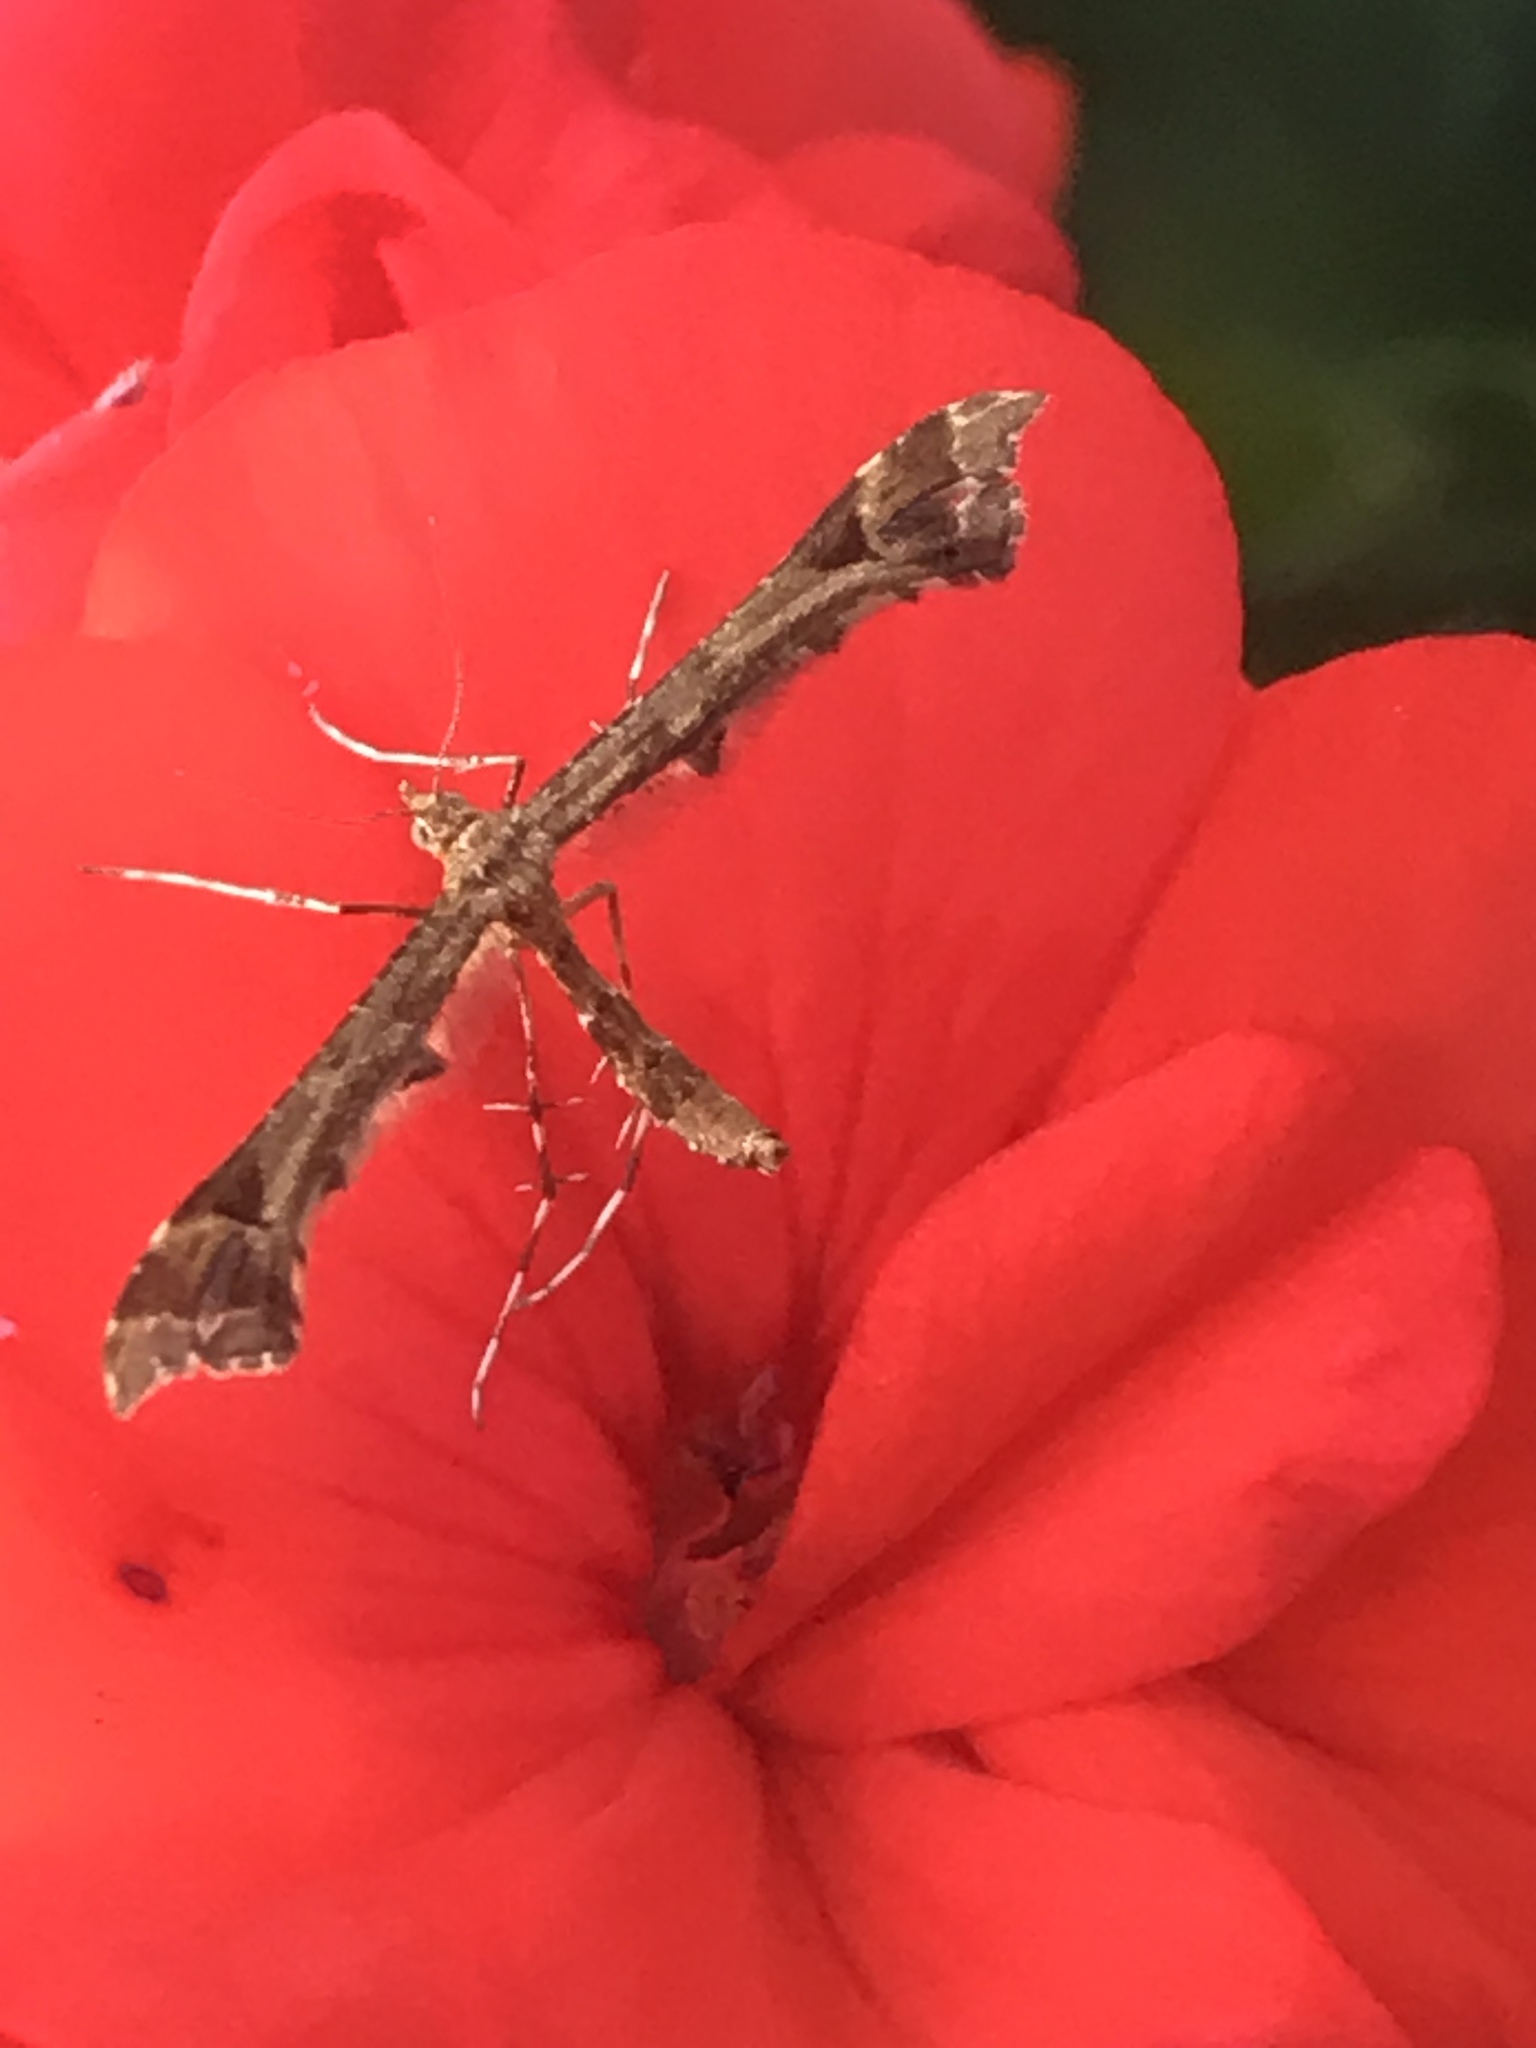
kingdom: Animalia
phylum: Arthropoda
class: Insecta
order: Lepidoptera
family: Pterophoridae
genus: Amblyptilia
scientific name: Amblyptilia pica
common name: Geranium plume moth
